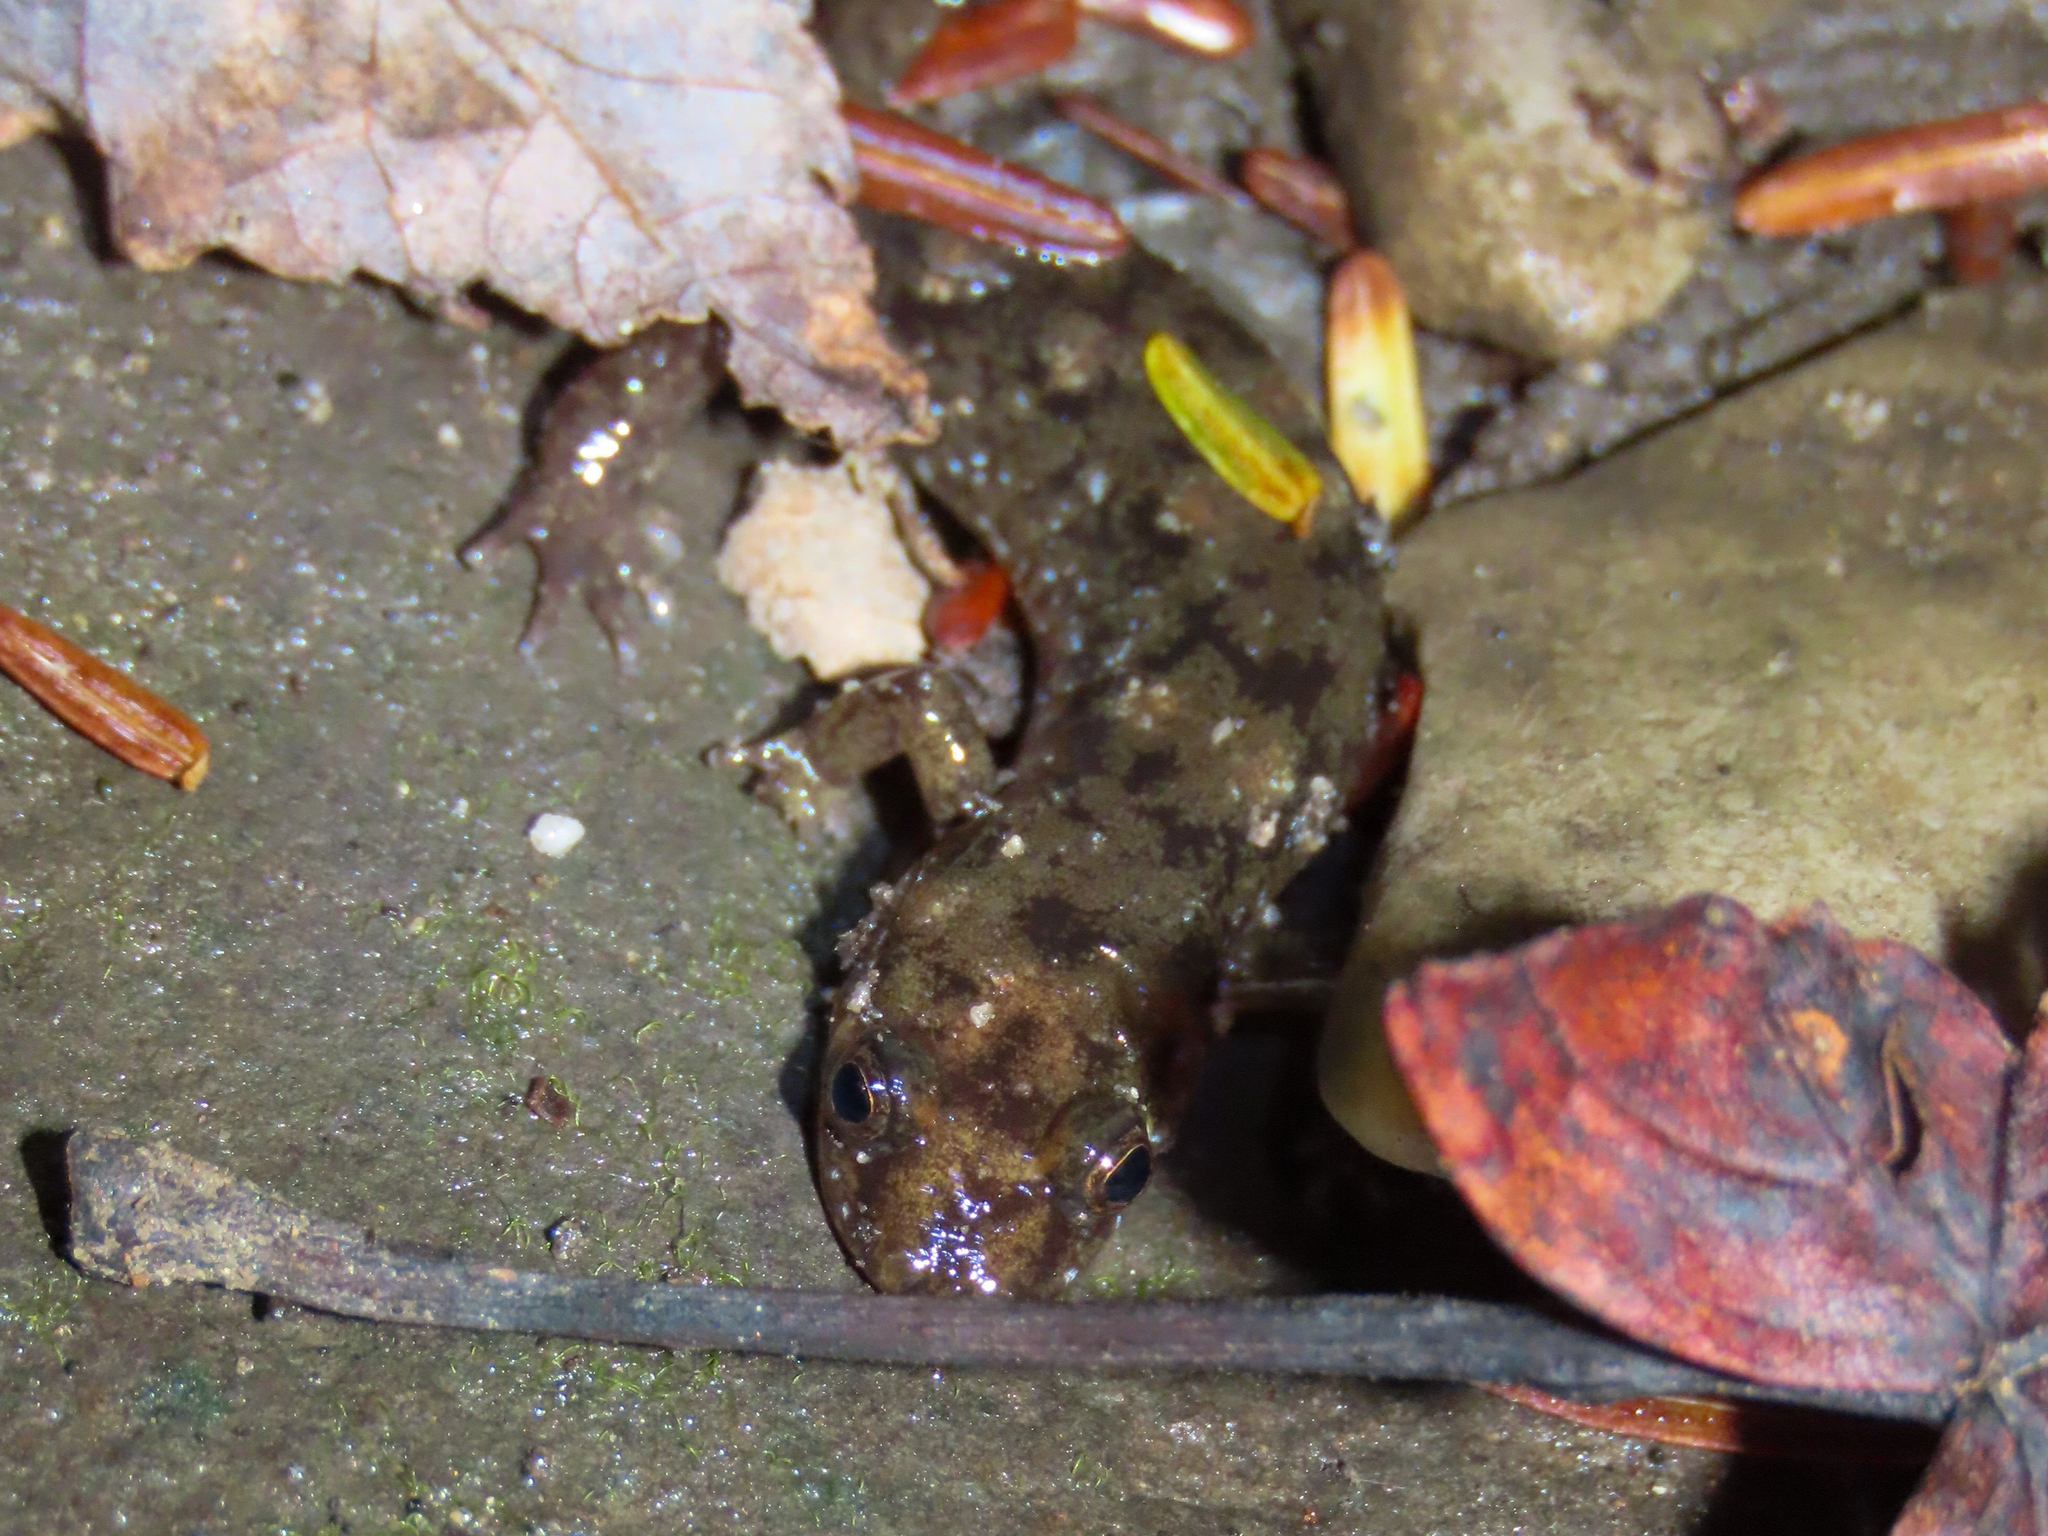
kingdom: Animalia
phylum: Chordata
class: Amphibia
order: Caudata
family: Plethodontidae
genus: Desmognathus
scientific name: Desmognathus monticola
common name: Seal salamander
